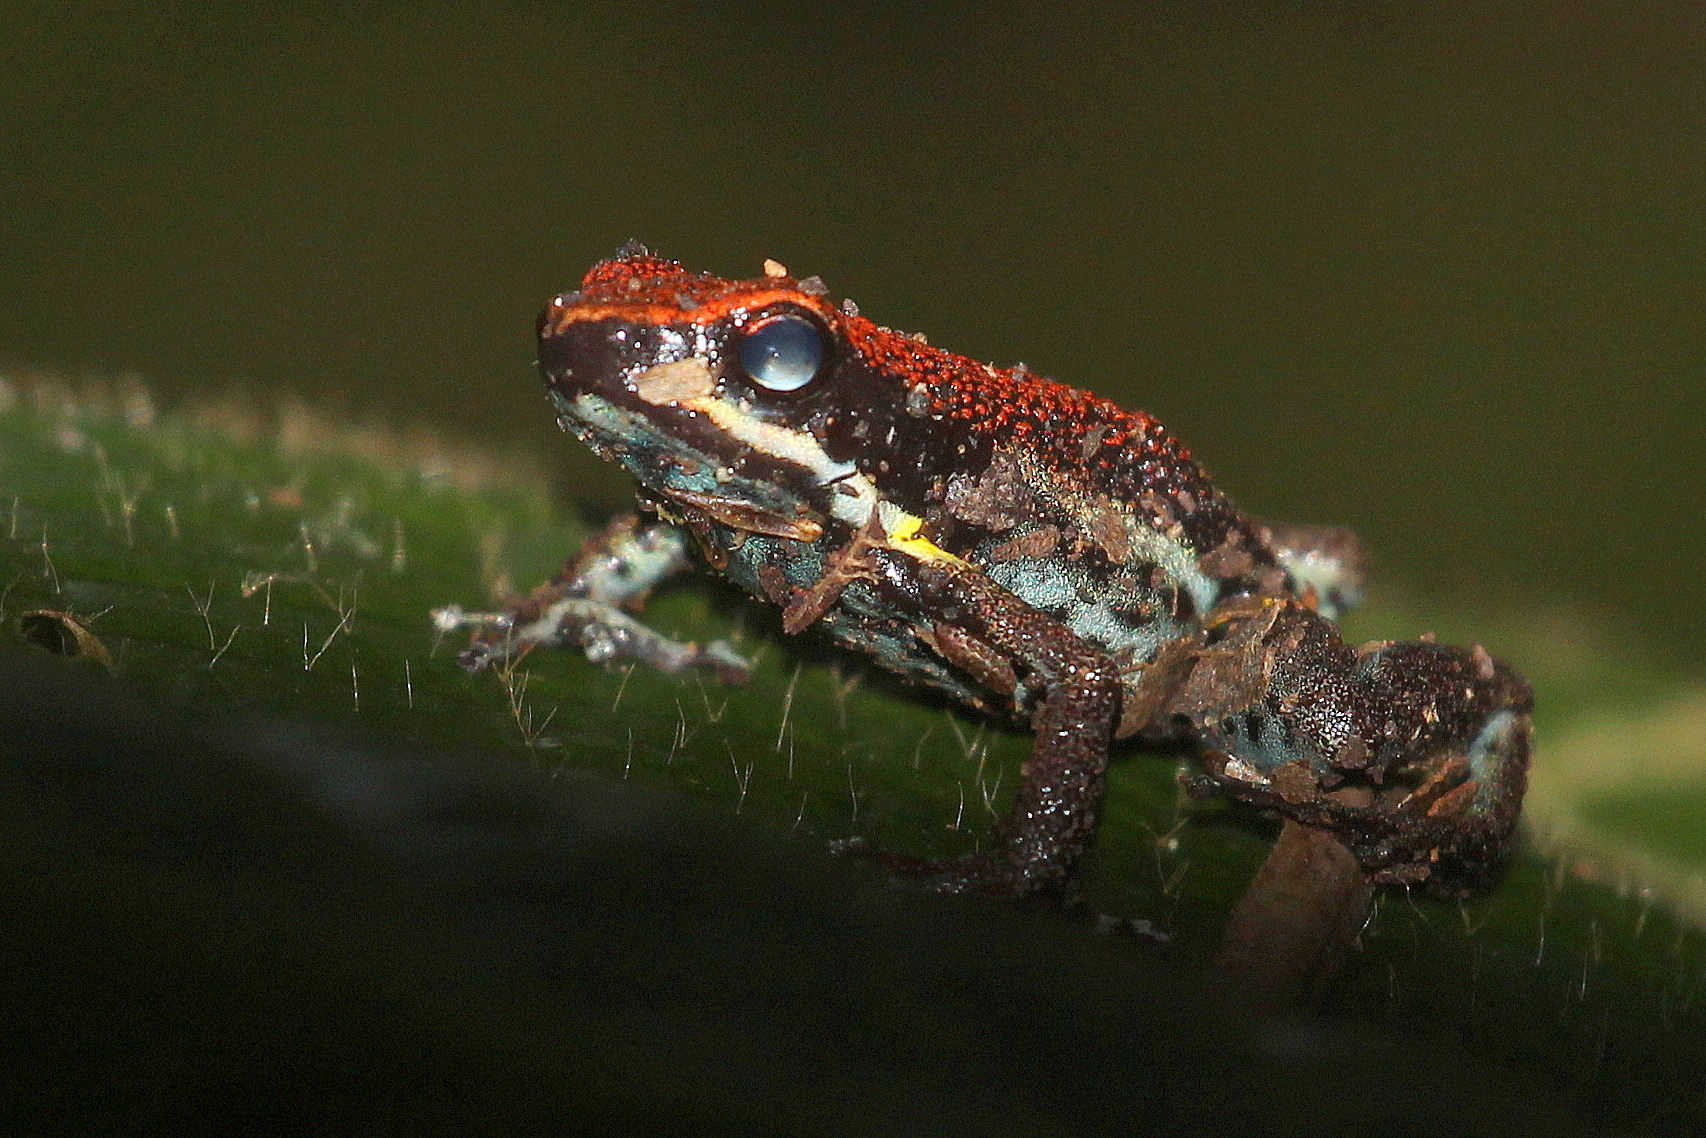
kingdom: Animalia
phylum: Chordata
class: Amphibia
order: Anura
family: Dendrobatidae
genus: Ameerega
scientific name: Ameerega bilinguis
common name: Ecuadorean poison frog
